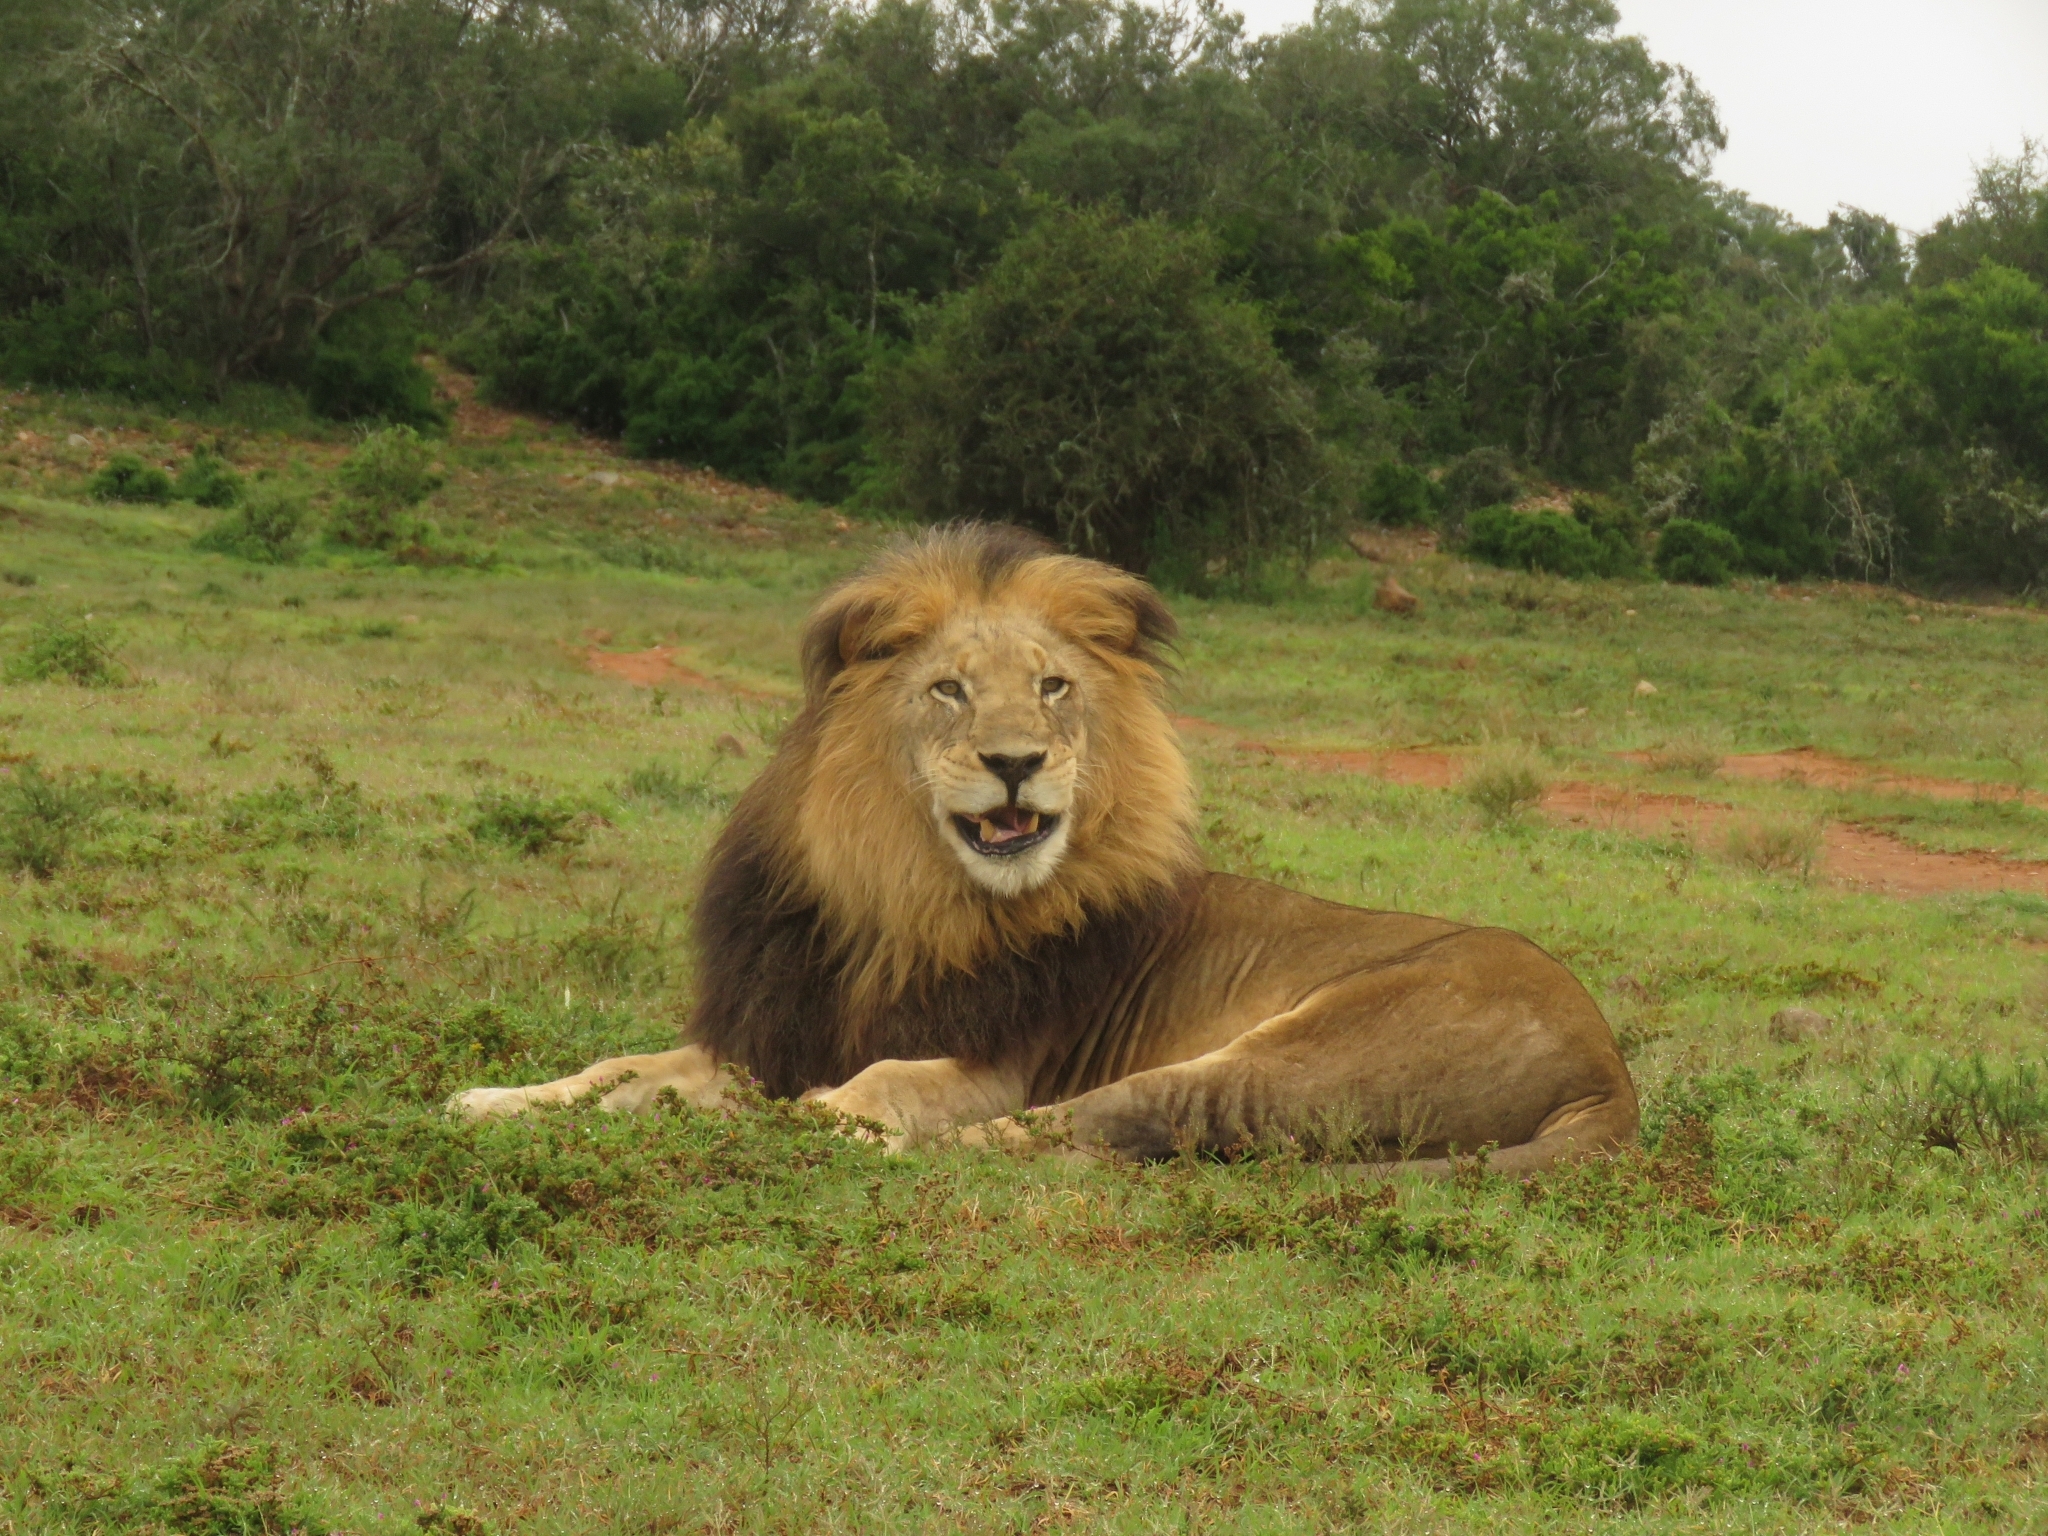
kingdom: Animalia
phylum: Chordata
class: Mammalia
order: Carnivora
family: Felidae
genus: Panthera
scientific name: Panthera leo
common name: Lion
